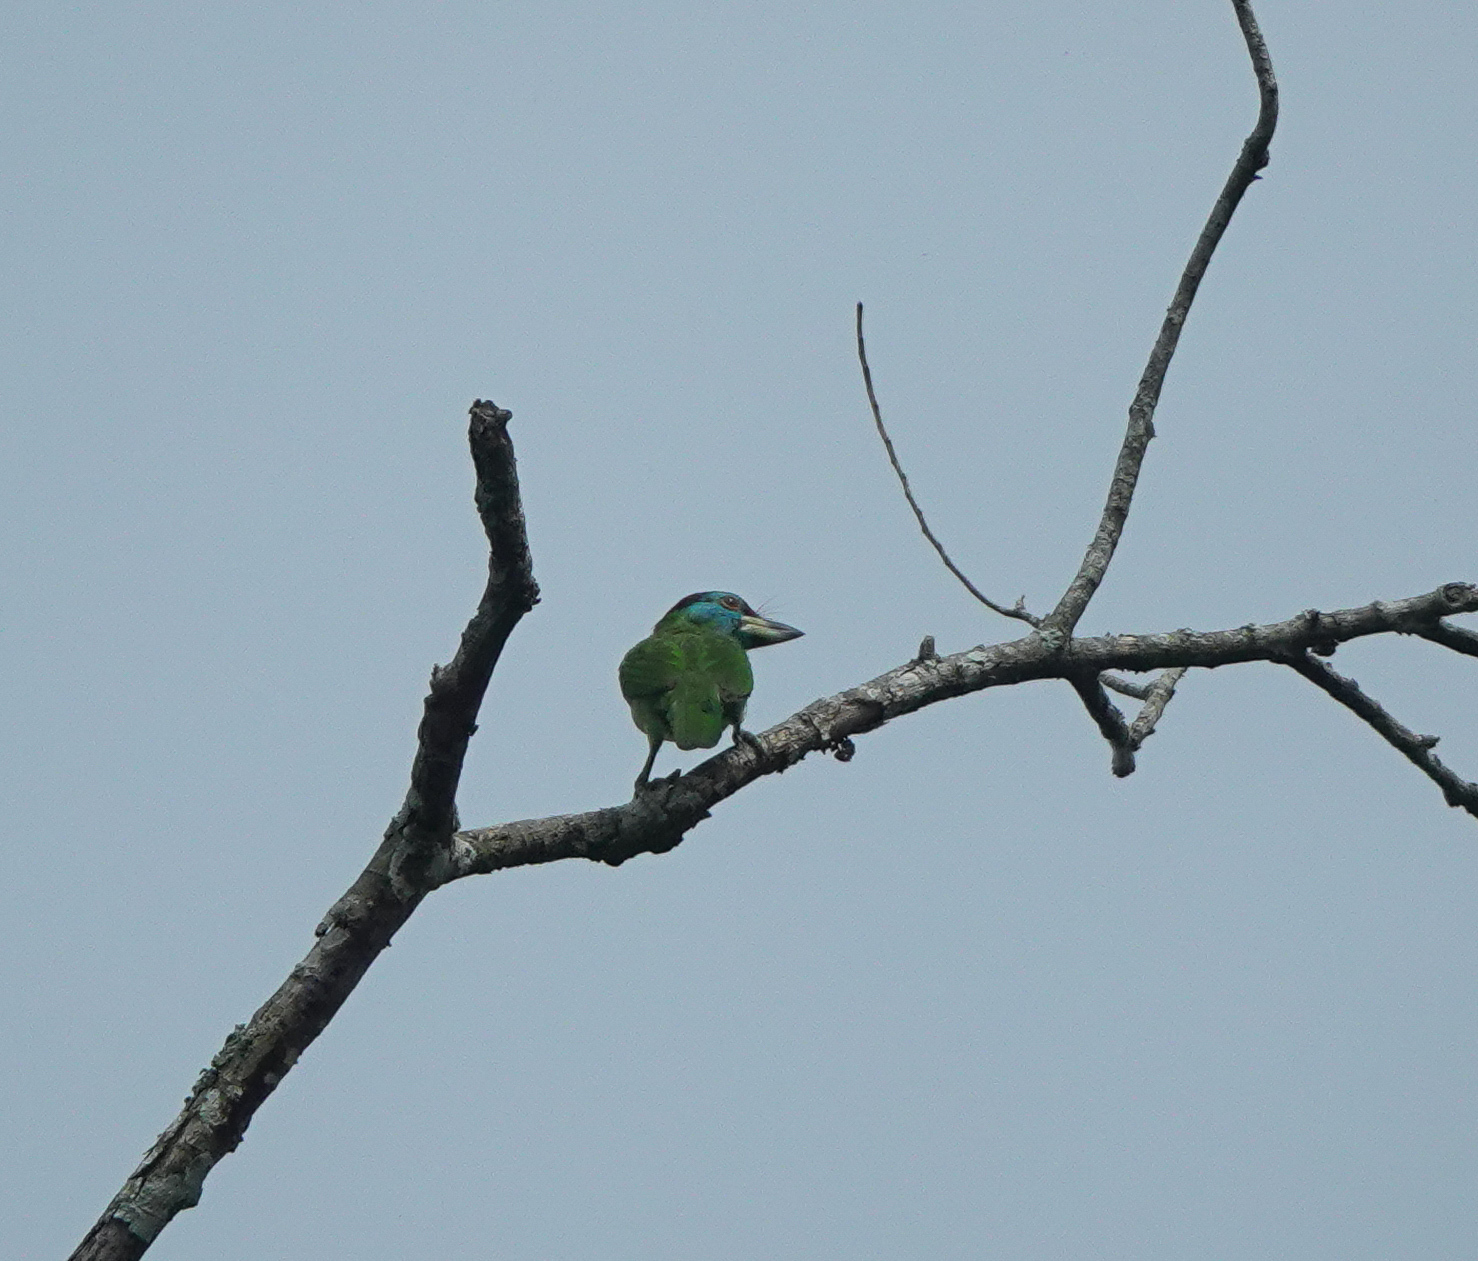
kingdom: Animalia
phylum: Chordata
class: Aves
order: Piciformes
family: Megalaimidae
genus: Psilopogon
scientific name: Psilopogon asiaticus
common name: Blue-throated barbet
